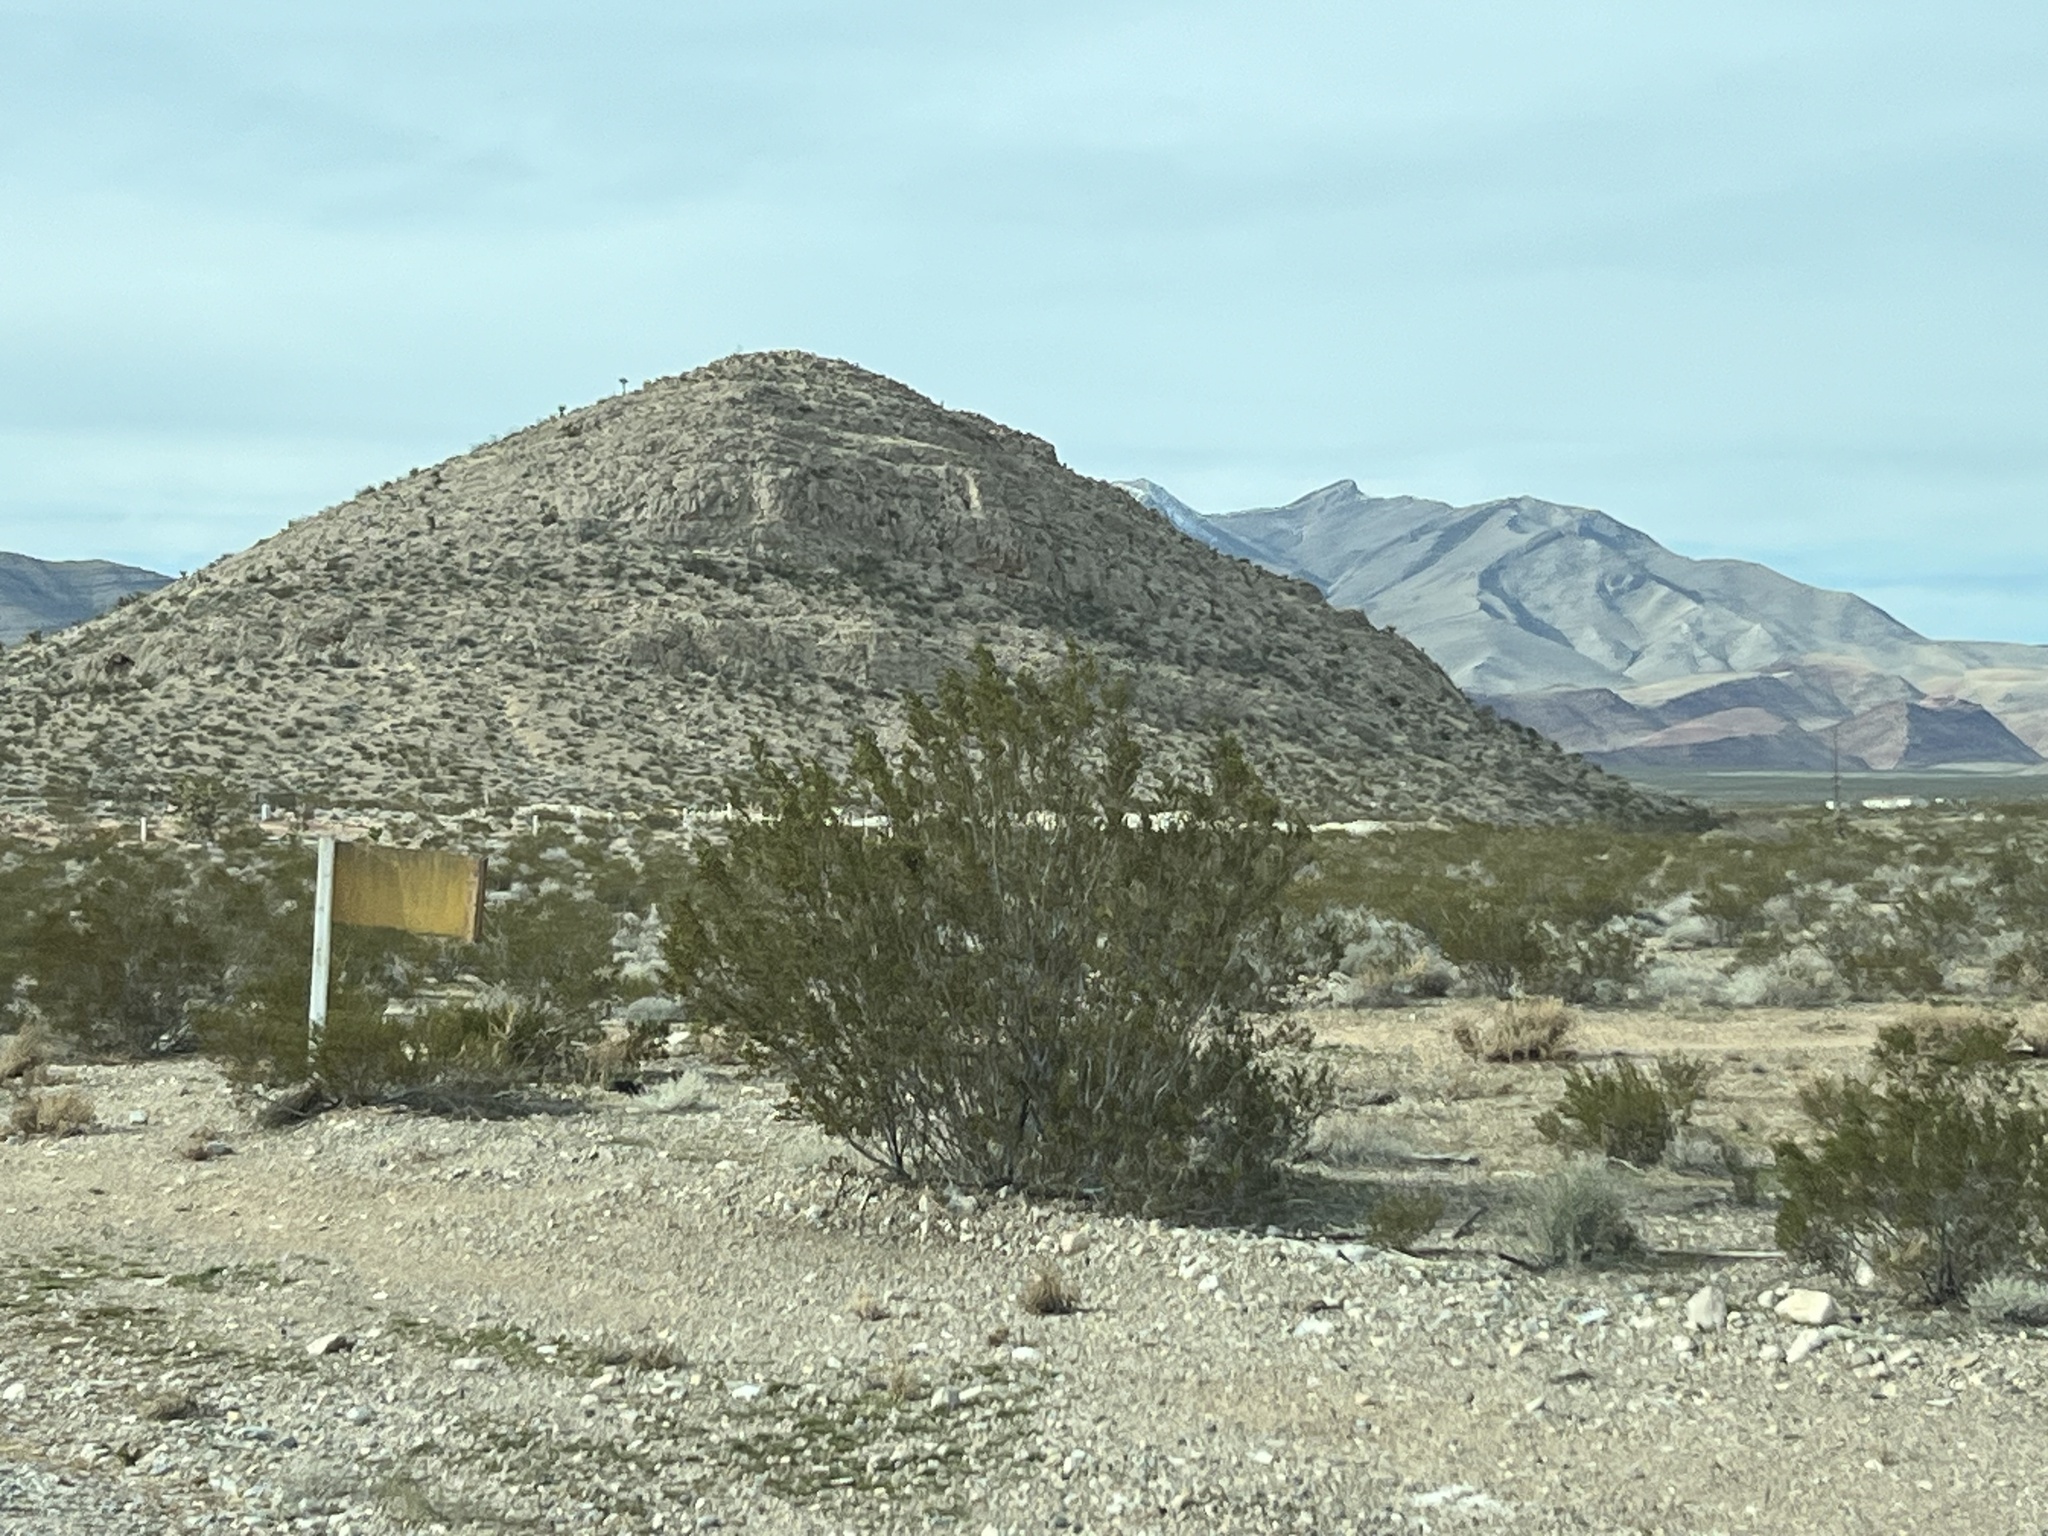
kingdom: Plantae
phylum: Tracheophyta
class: Magnoliopsida
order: Zygophyllales
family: Zygophyllaceae
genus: Larrea
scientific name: Larrea tridentata
